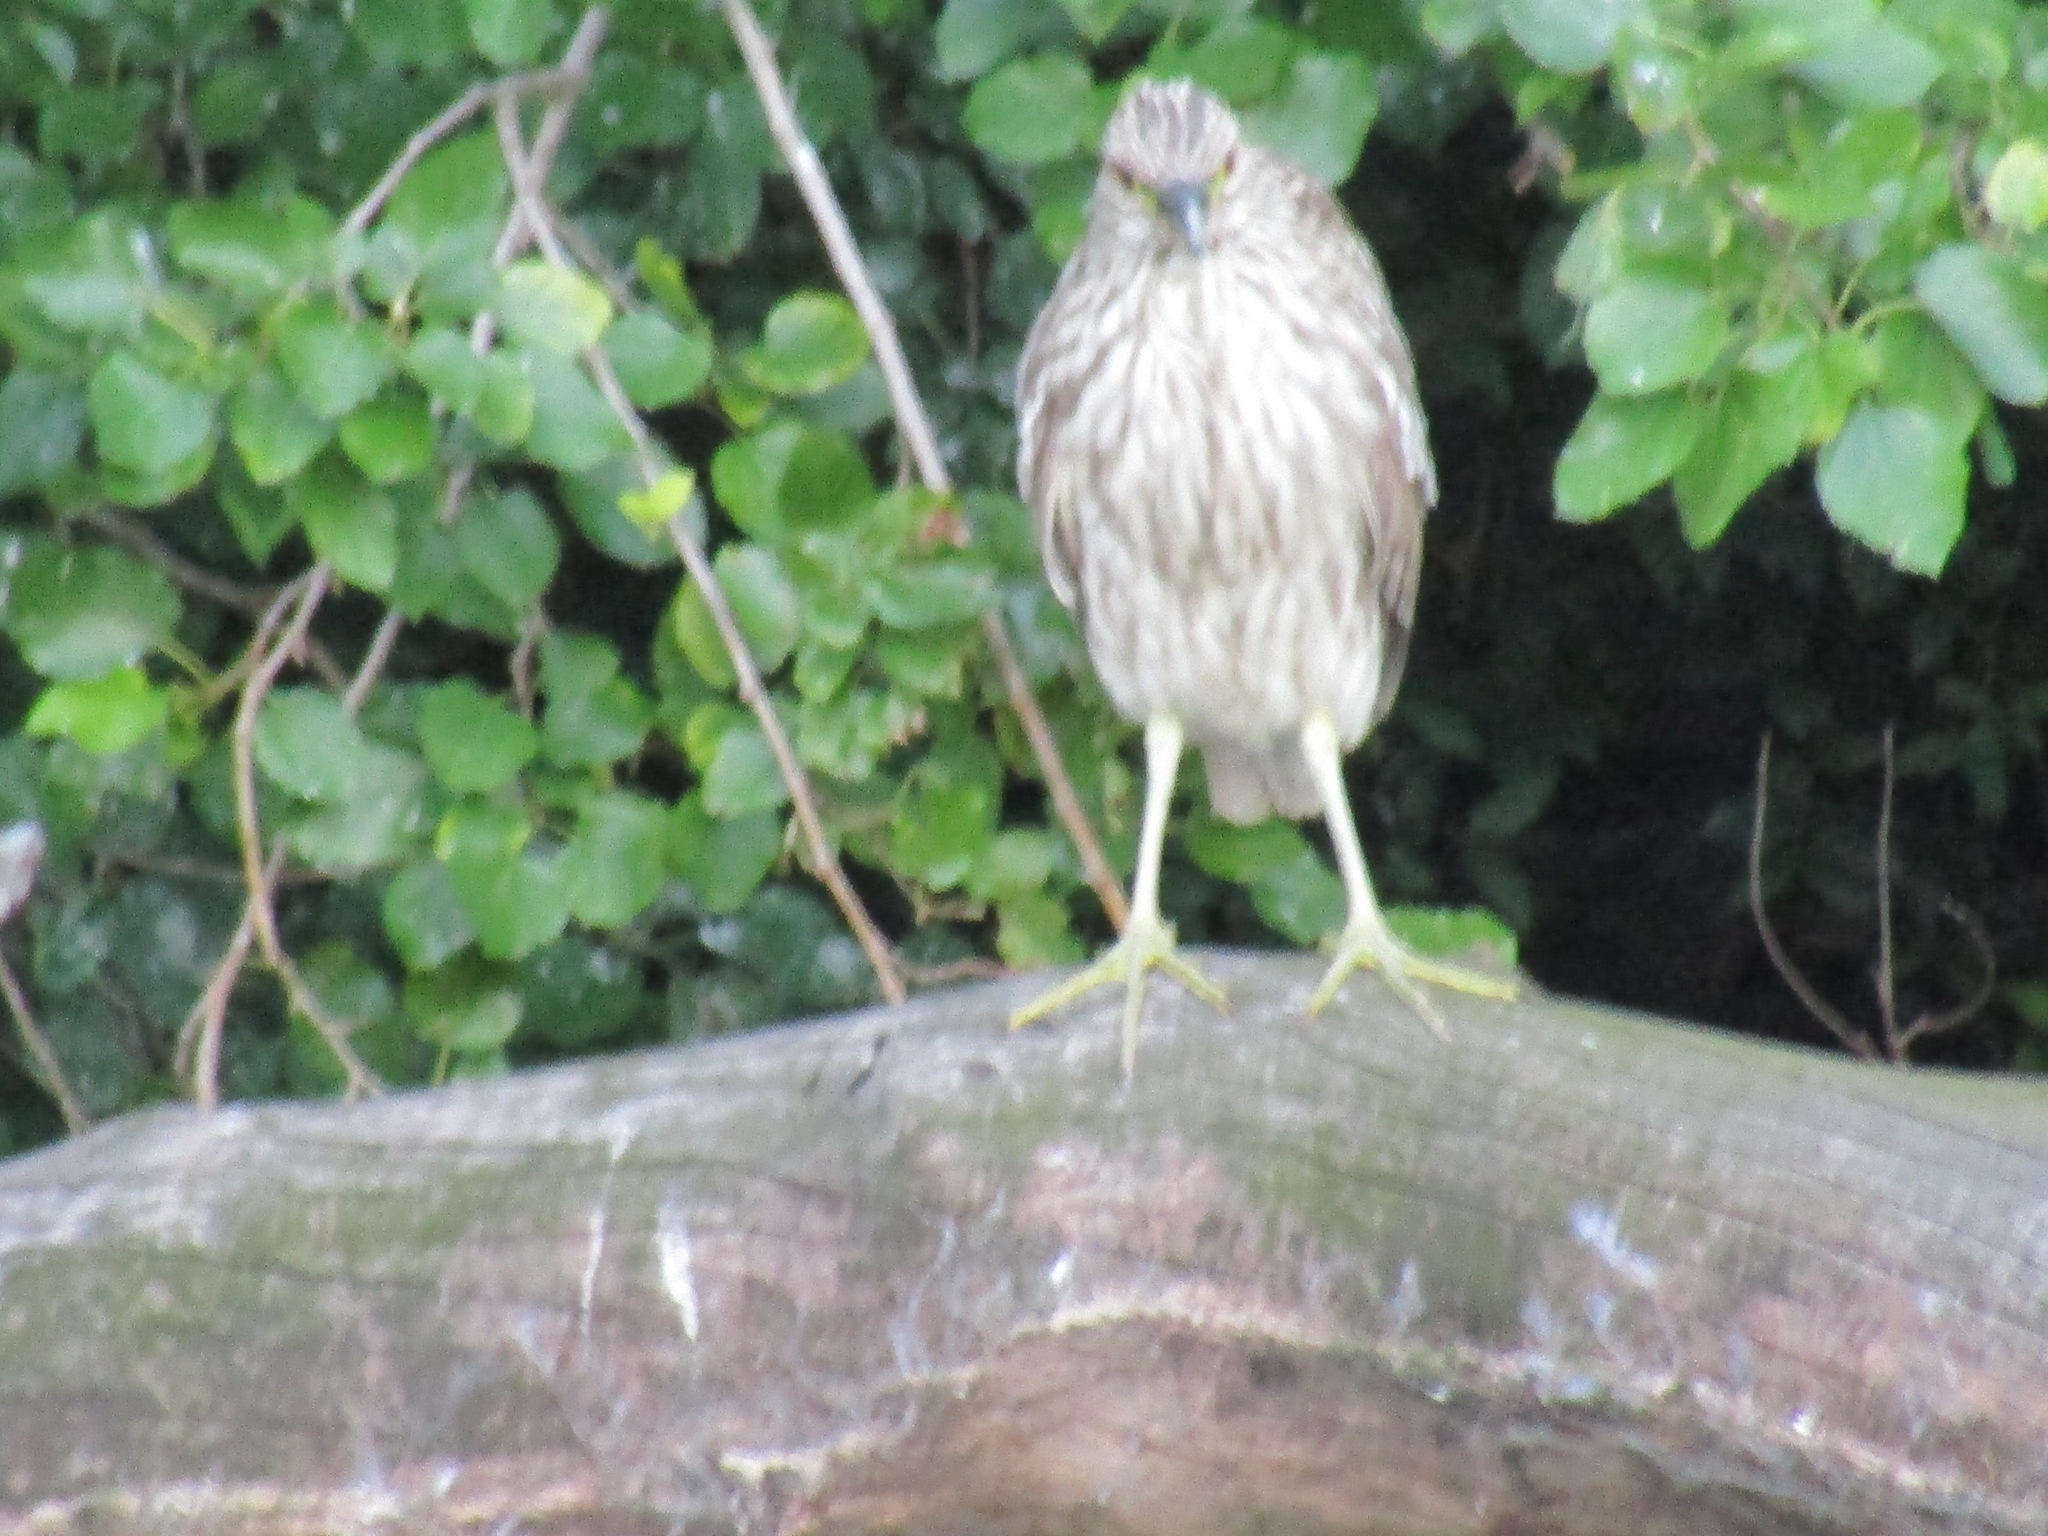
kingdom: Animalia
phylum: Chordata
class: Aves
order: Pelecaniformes
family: Ardeidae
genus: Nycticorax
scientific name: Nycticorax nycticorax
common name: Black-crowned night heron
